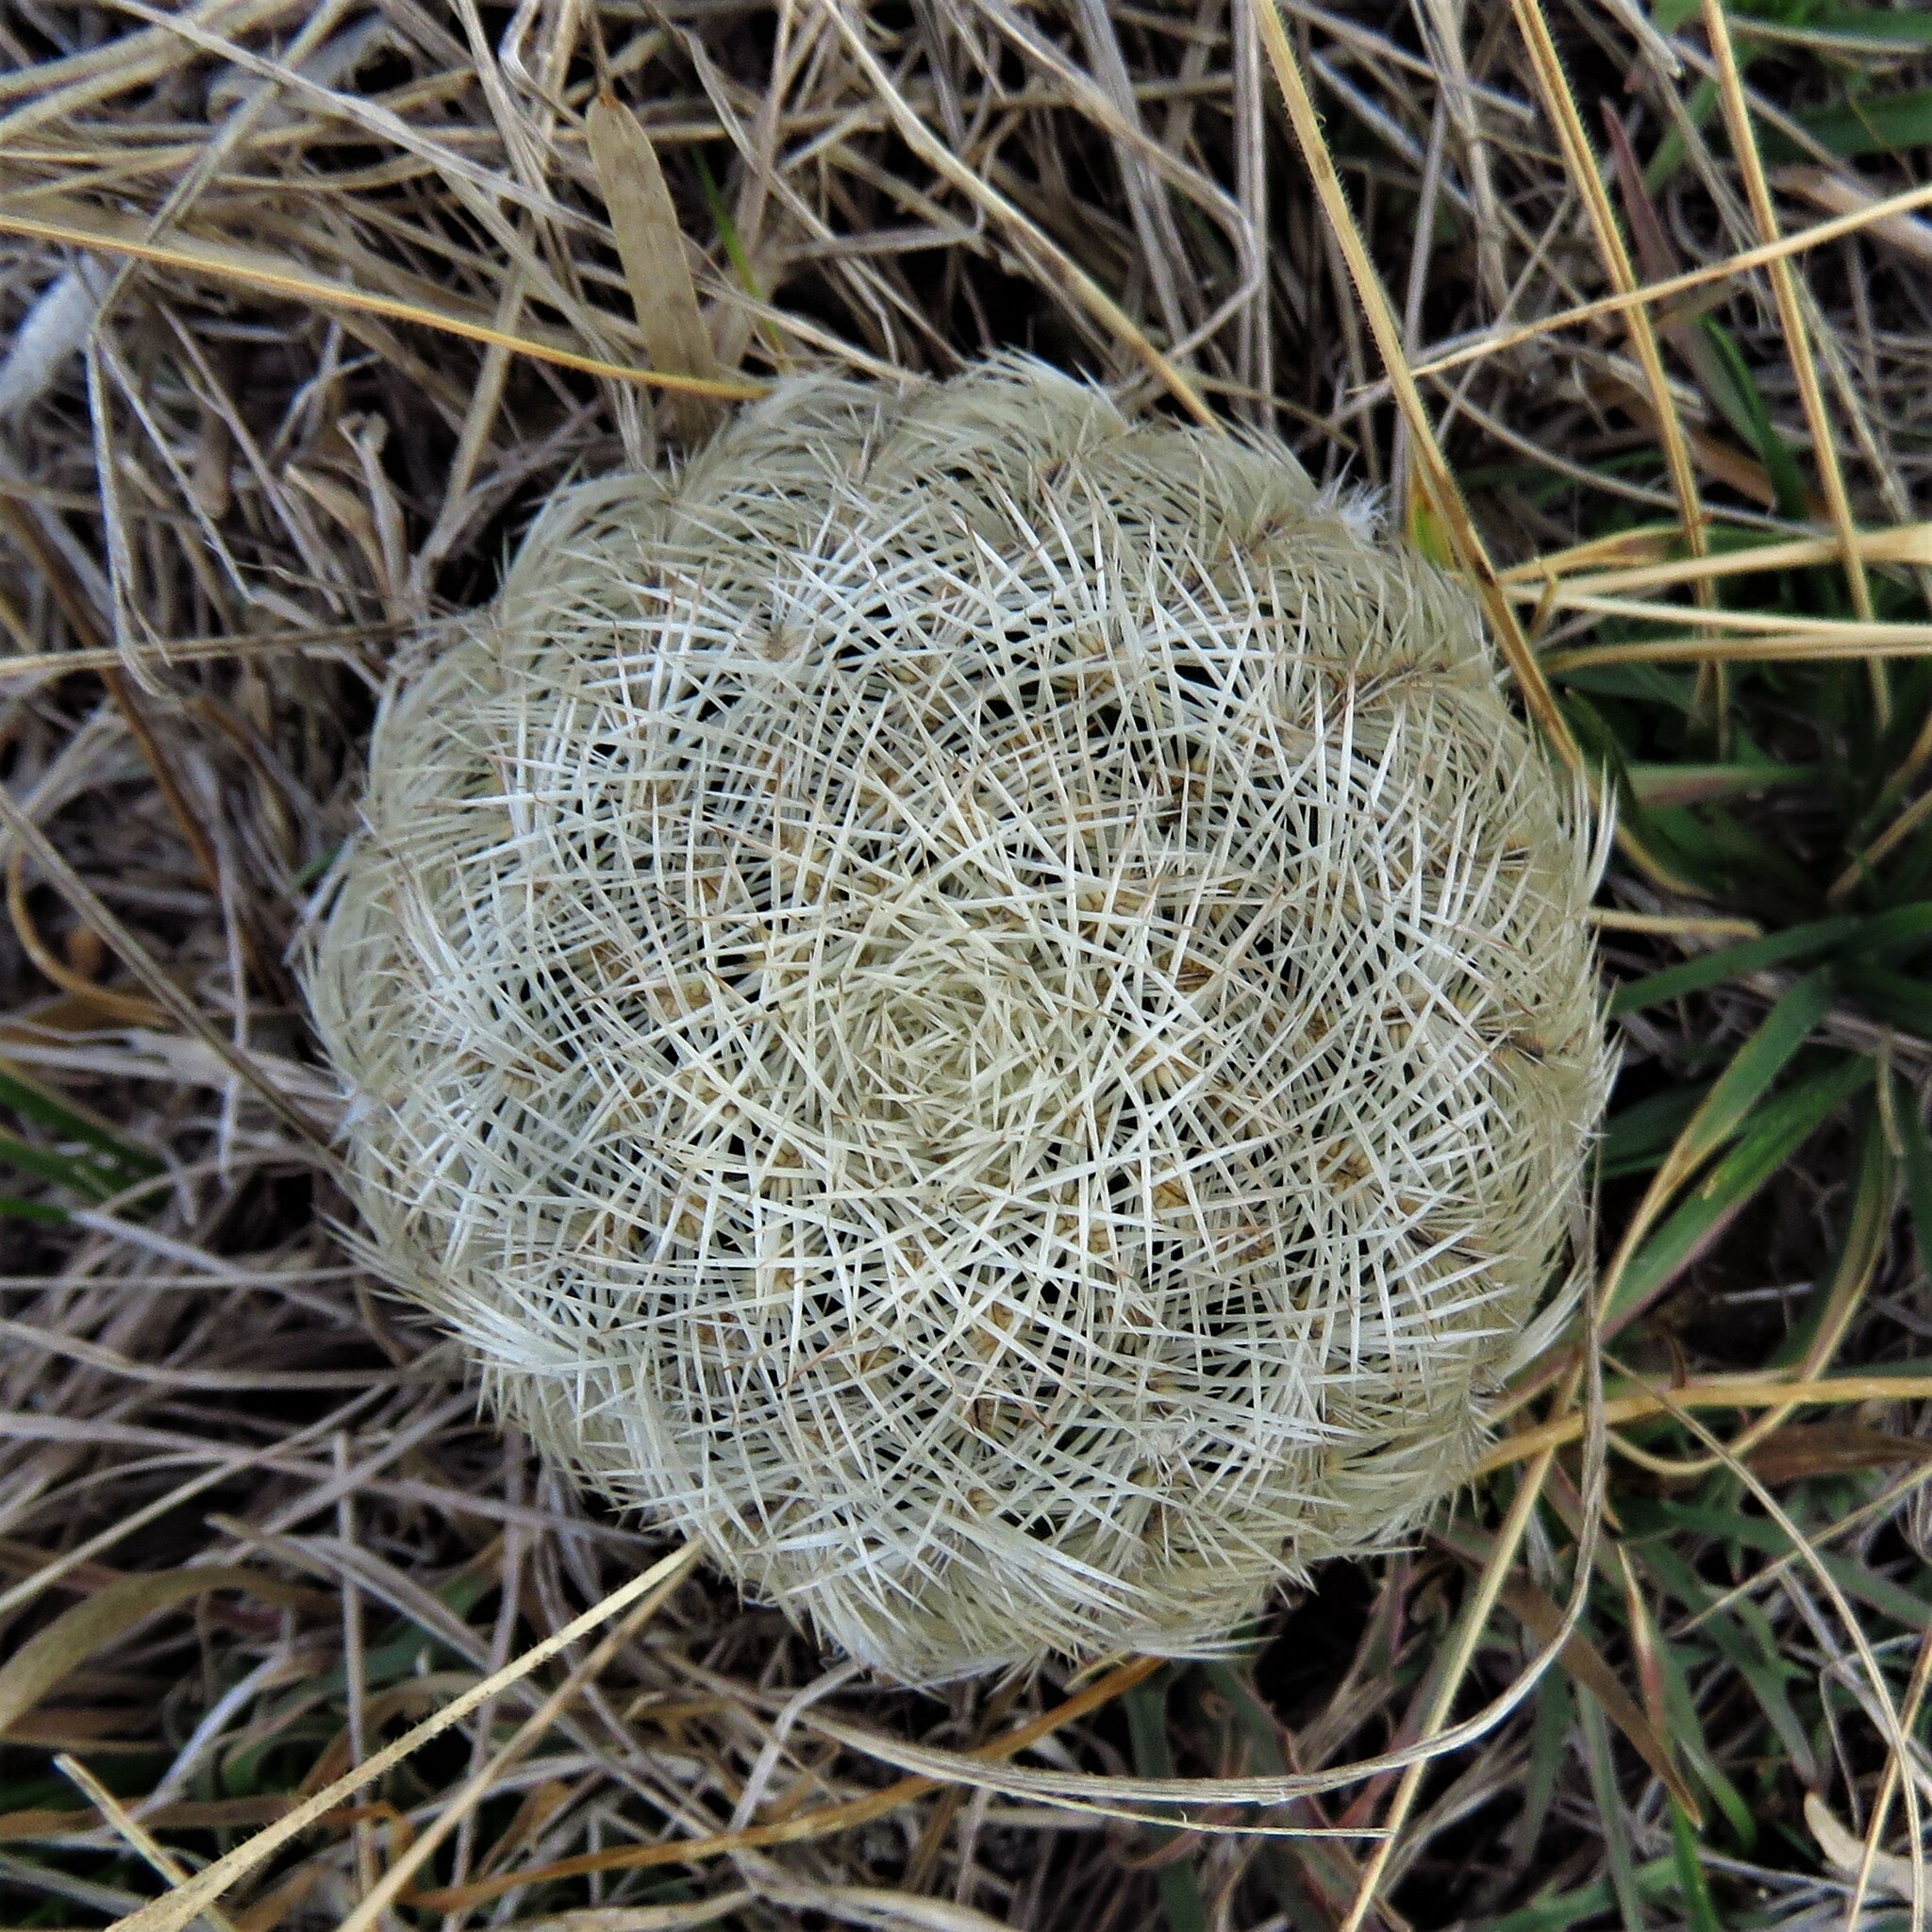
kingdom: Plantae
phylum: Tracheophyta
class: Magnoliopsida
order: Caryophyllales
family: Cactaceae
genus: Echinocereus
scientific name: Echinocereus reichenbachii
